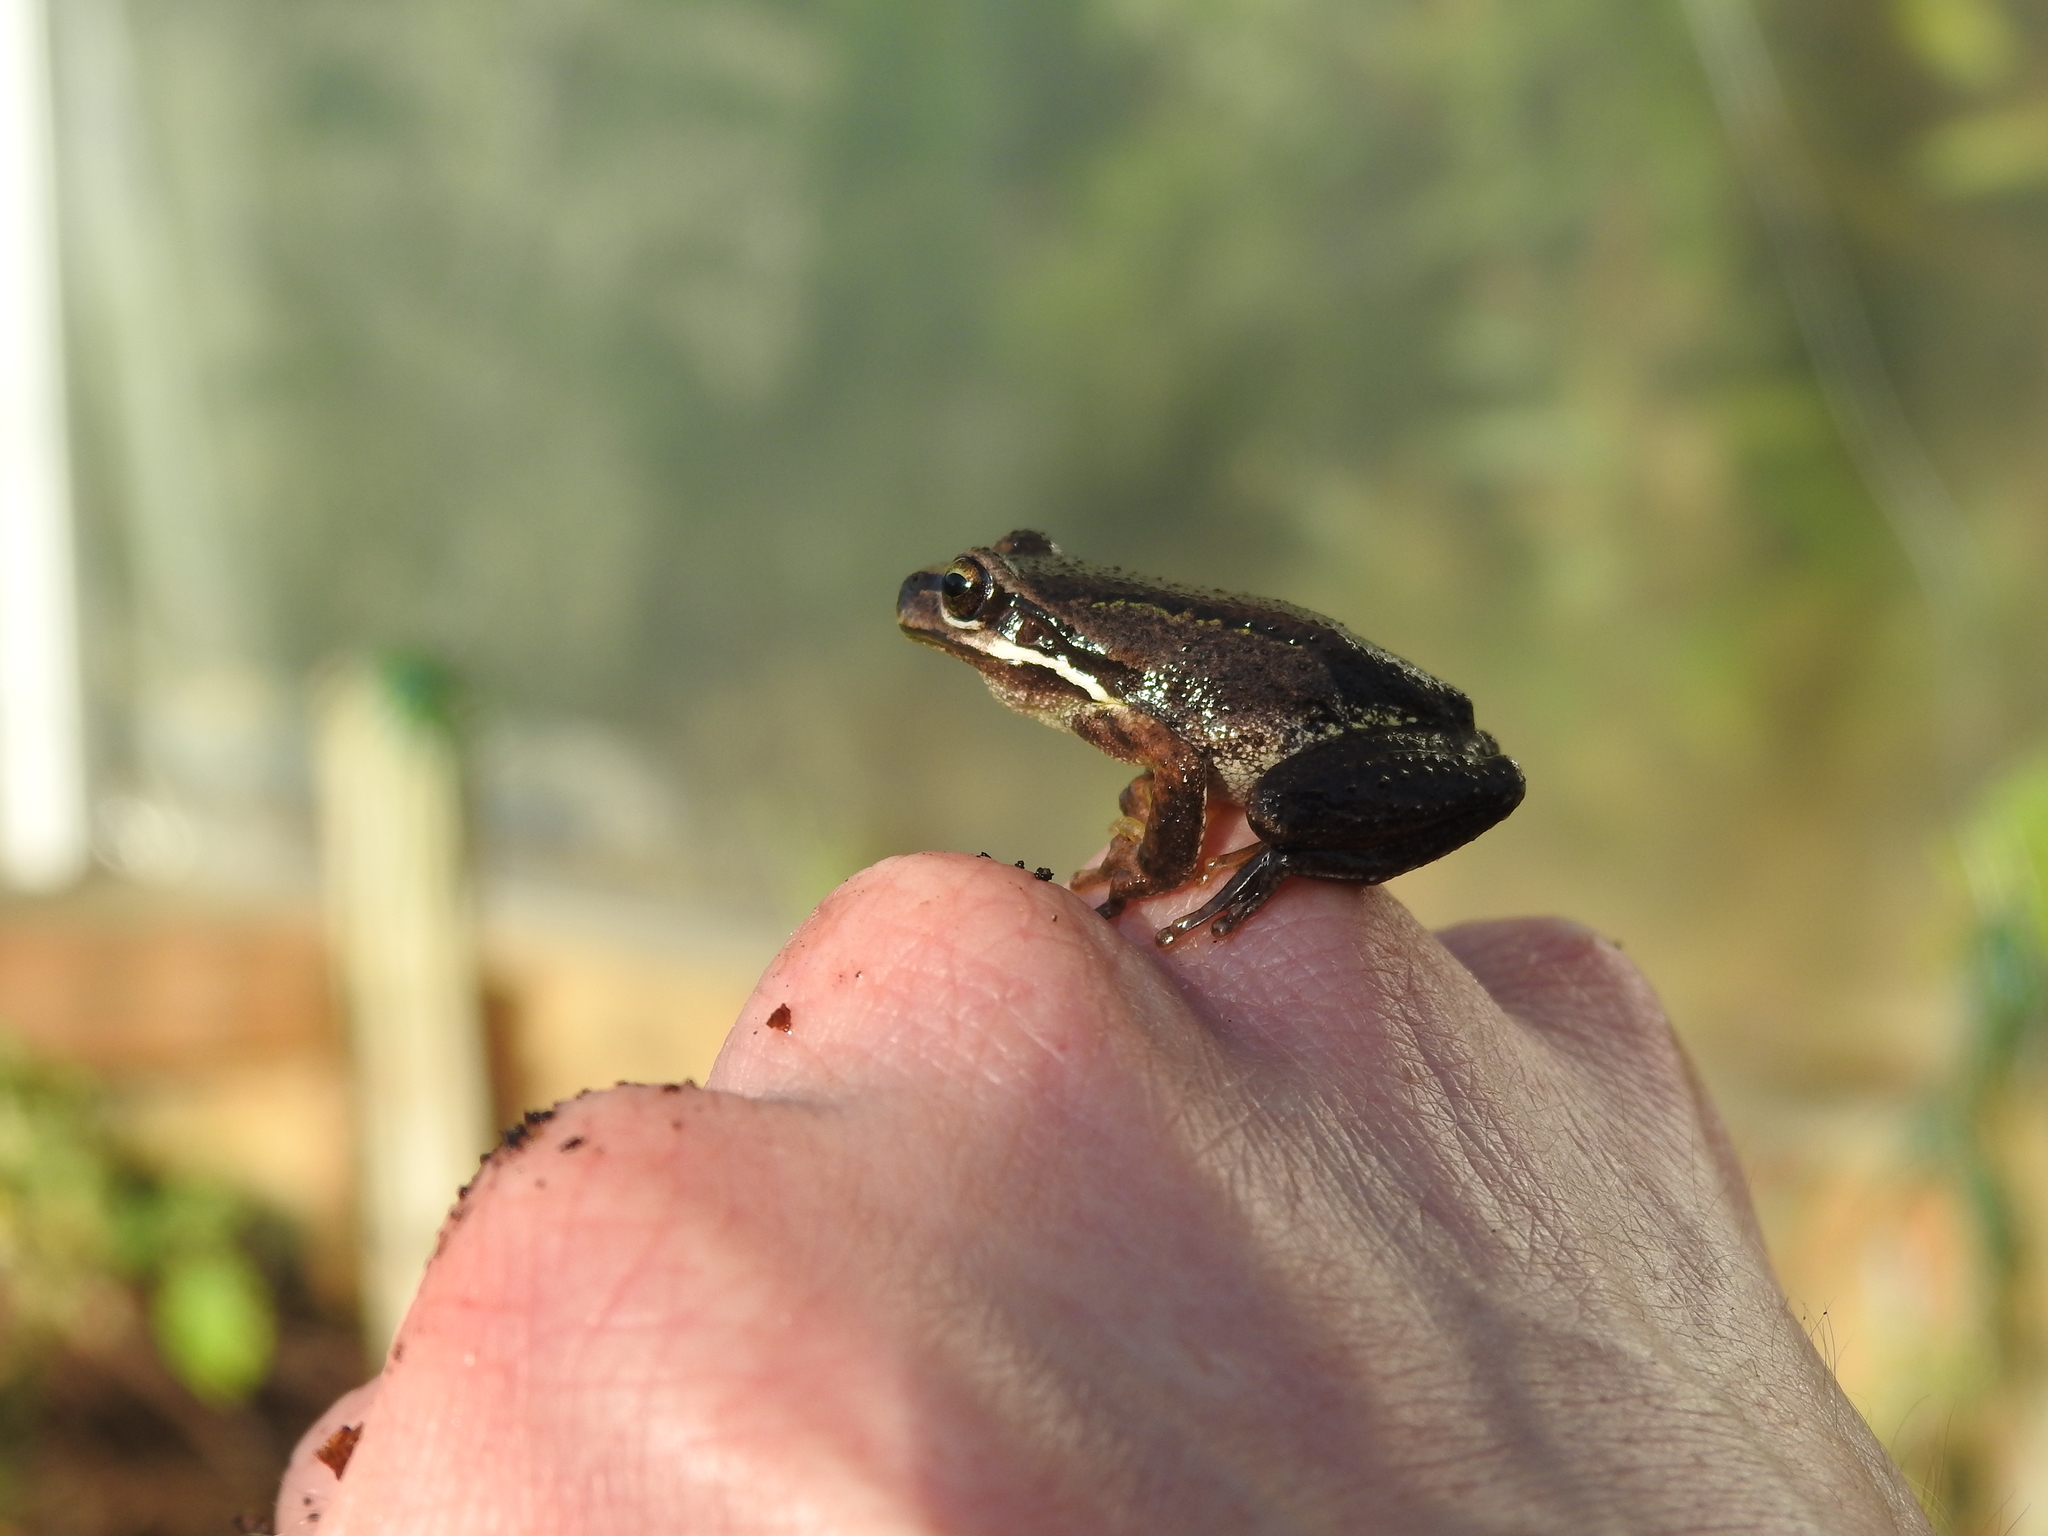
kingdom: Animalia
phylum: Chordata
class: Amphibia
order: Anura
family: Pelodryadidae
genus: Litoria
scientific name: Litoria ewingii
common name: Southern brown tree frog
